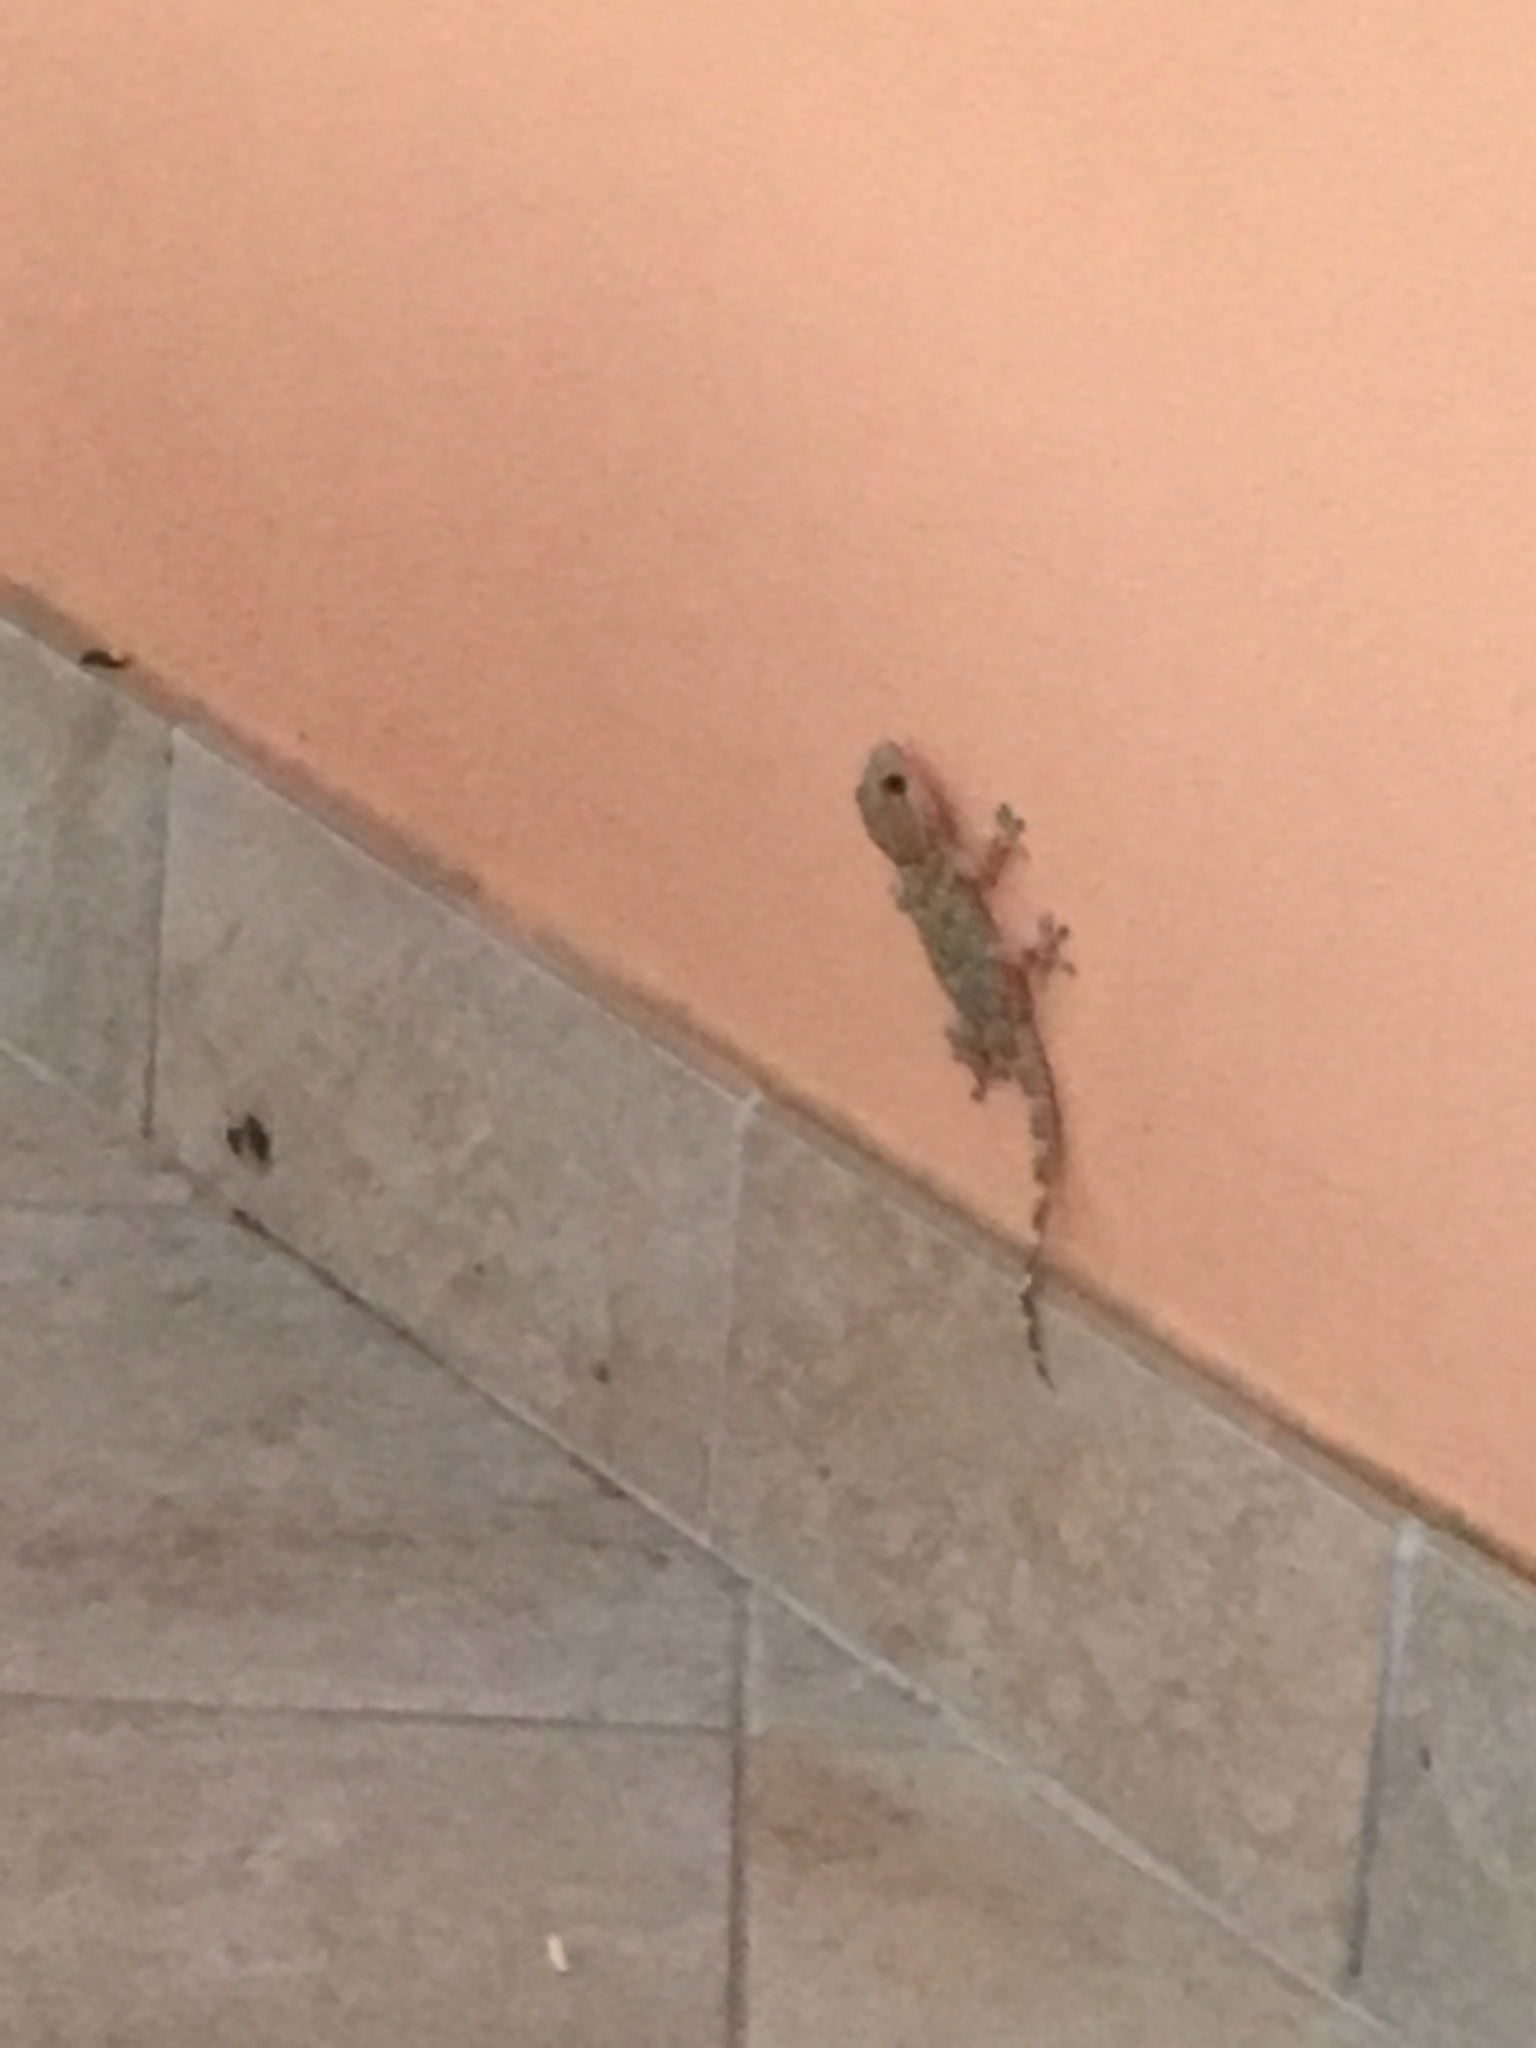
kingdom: Animalia
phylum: Chordata
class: Squamata
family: Phyllodactylidae
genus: Tarentola
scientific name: Tarentola mauritanica
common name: Moorish gecko
